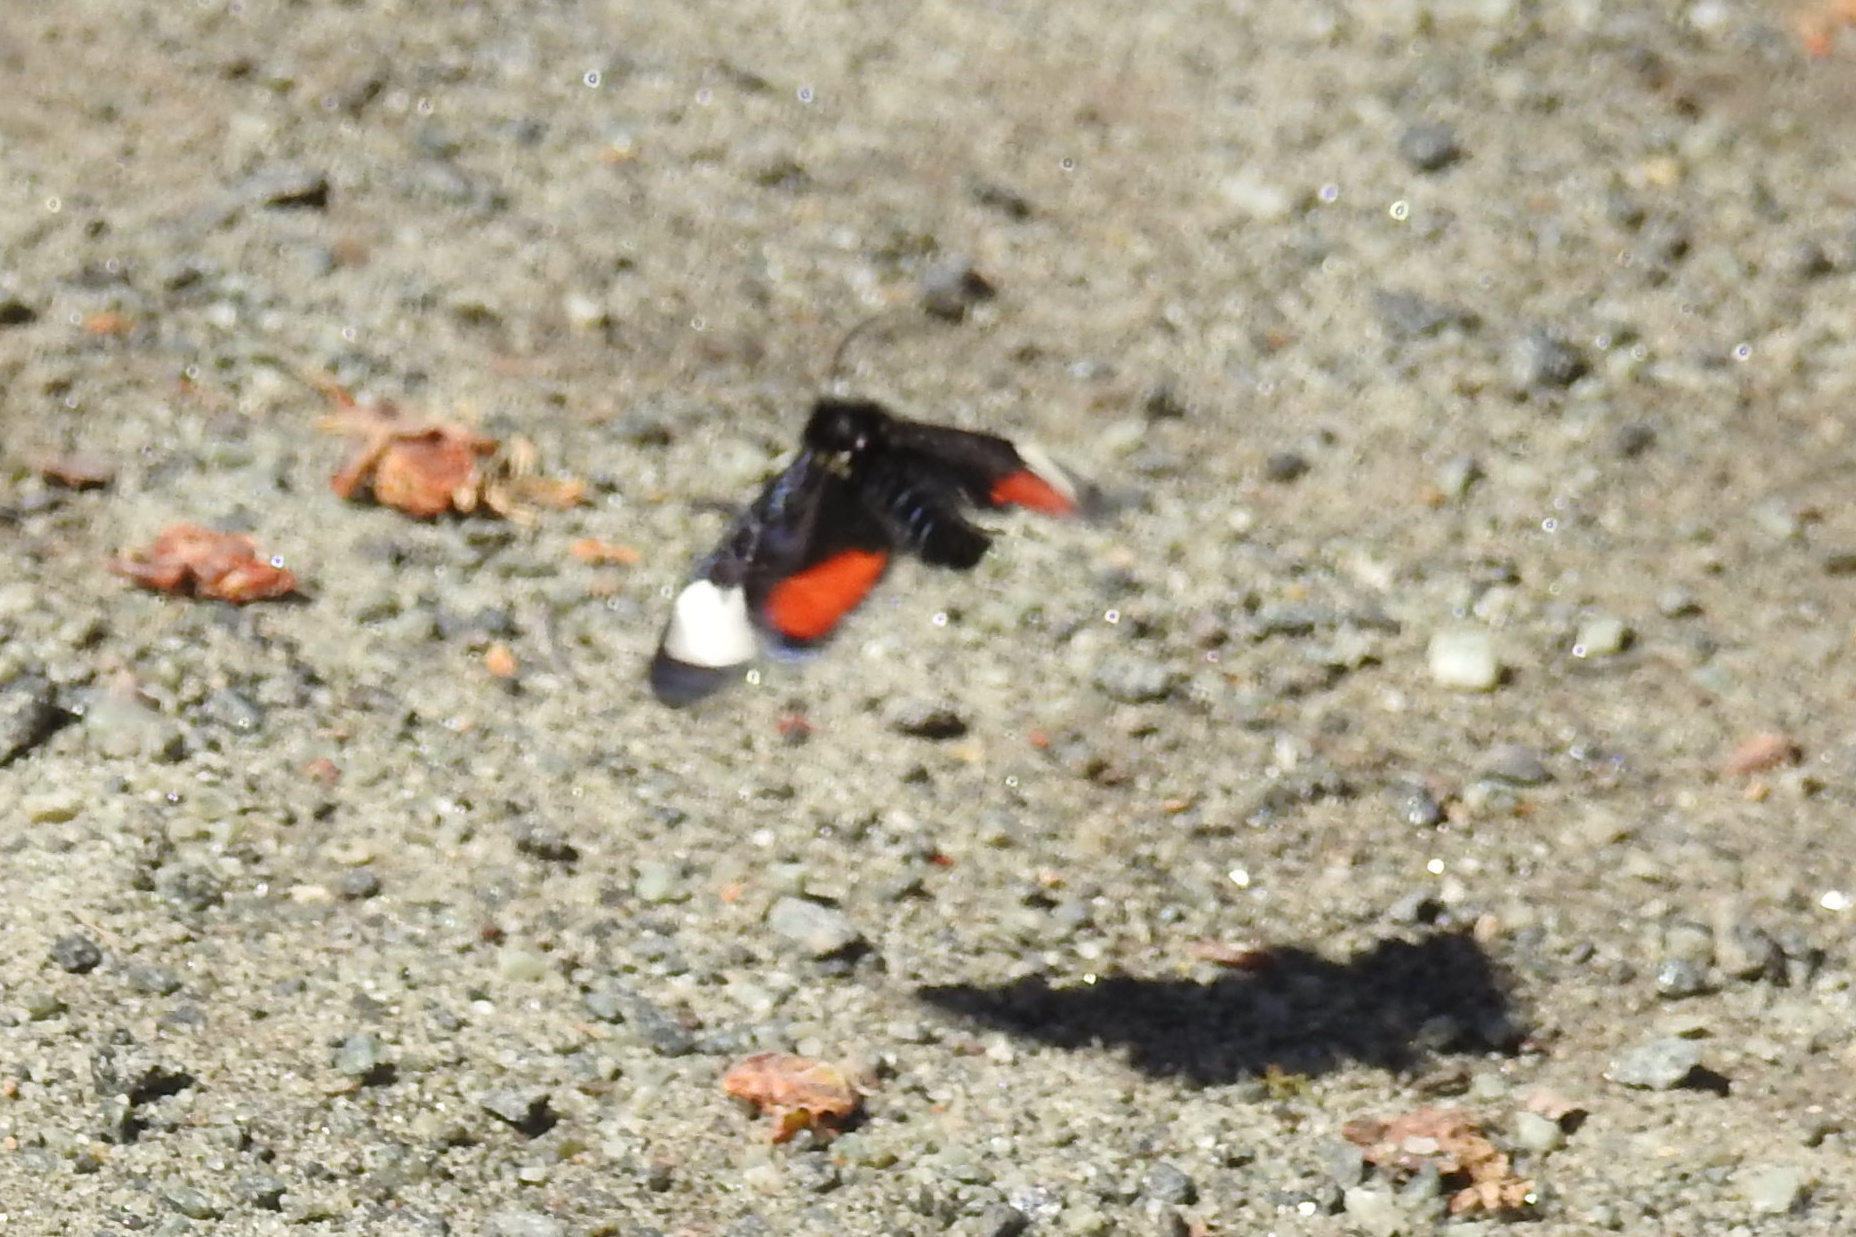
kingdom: Animalia
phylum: Arthropoda
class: Insecta
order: Lepidoptera
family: Noctuidae
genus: Psychomorpha
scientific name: Psychomorpha epimenis
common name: Grapevine epimenis moth
